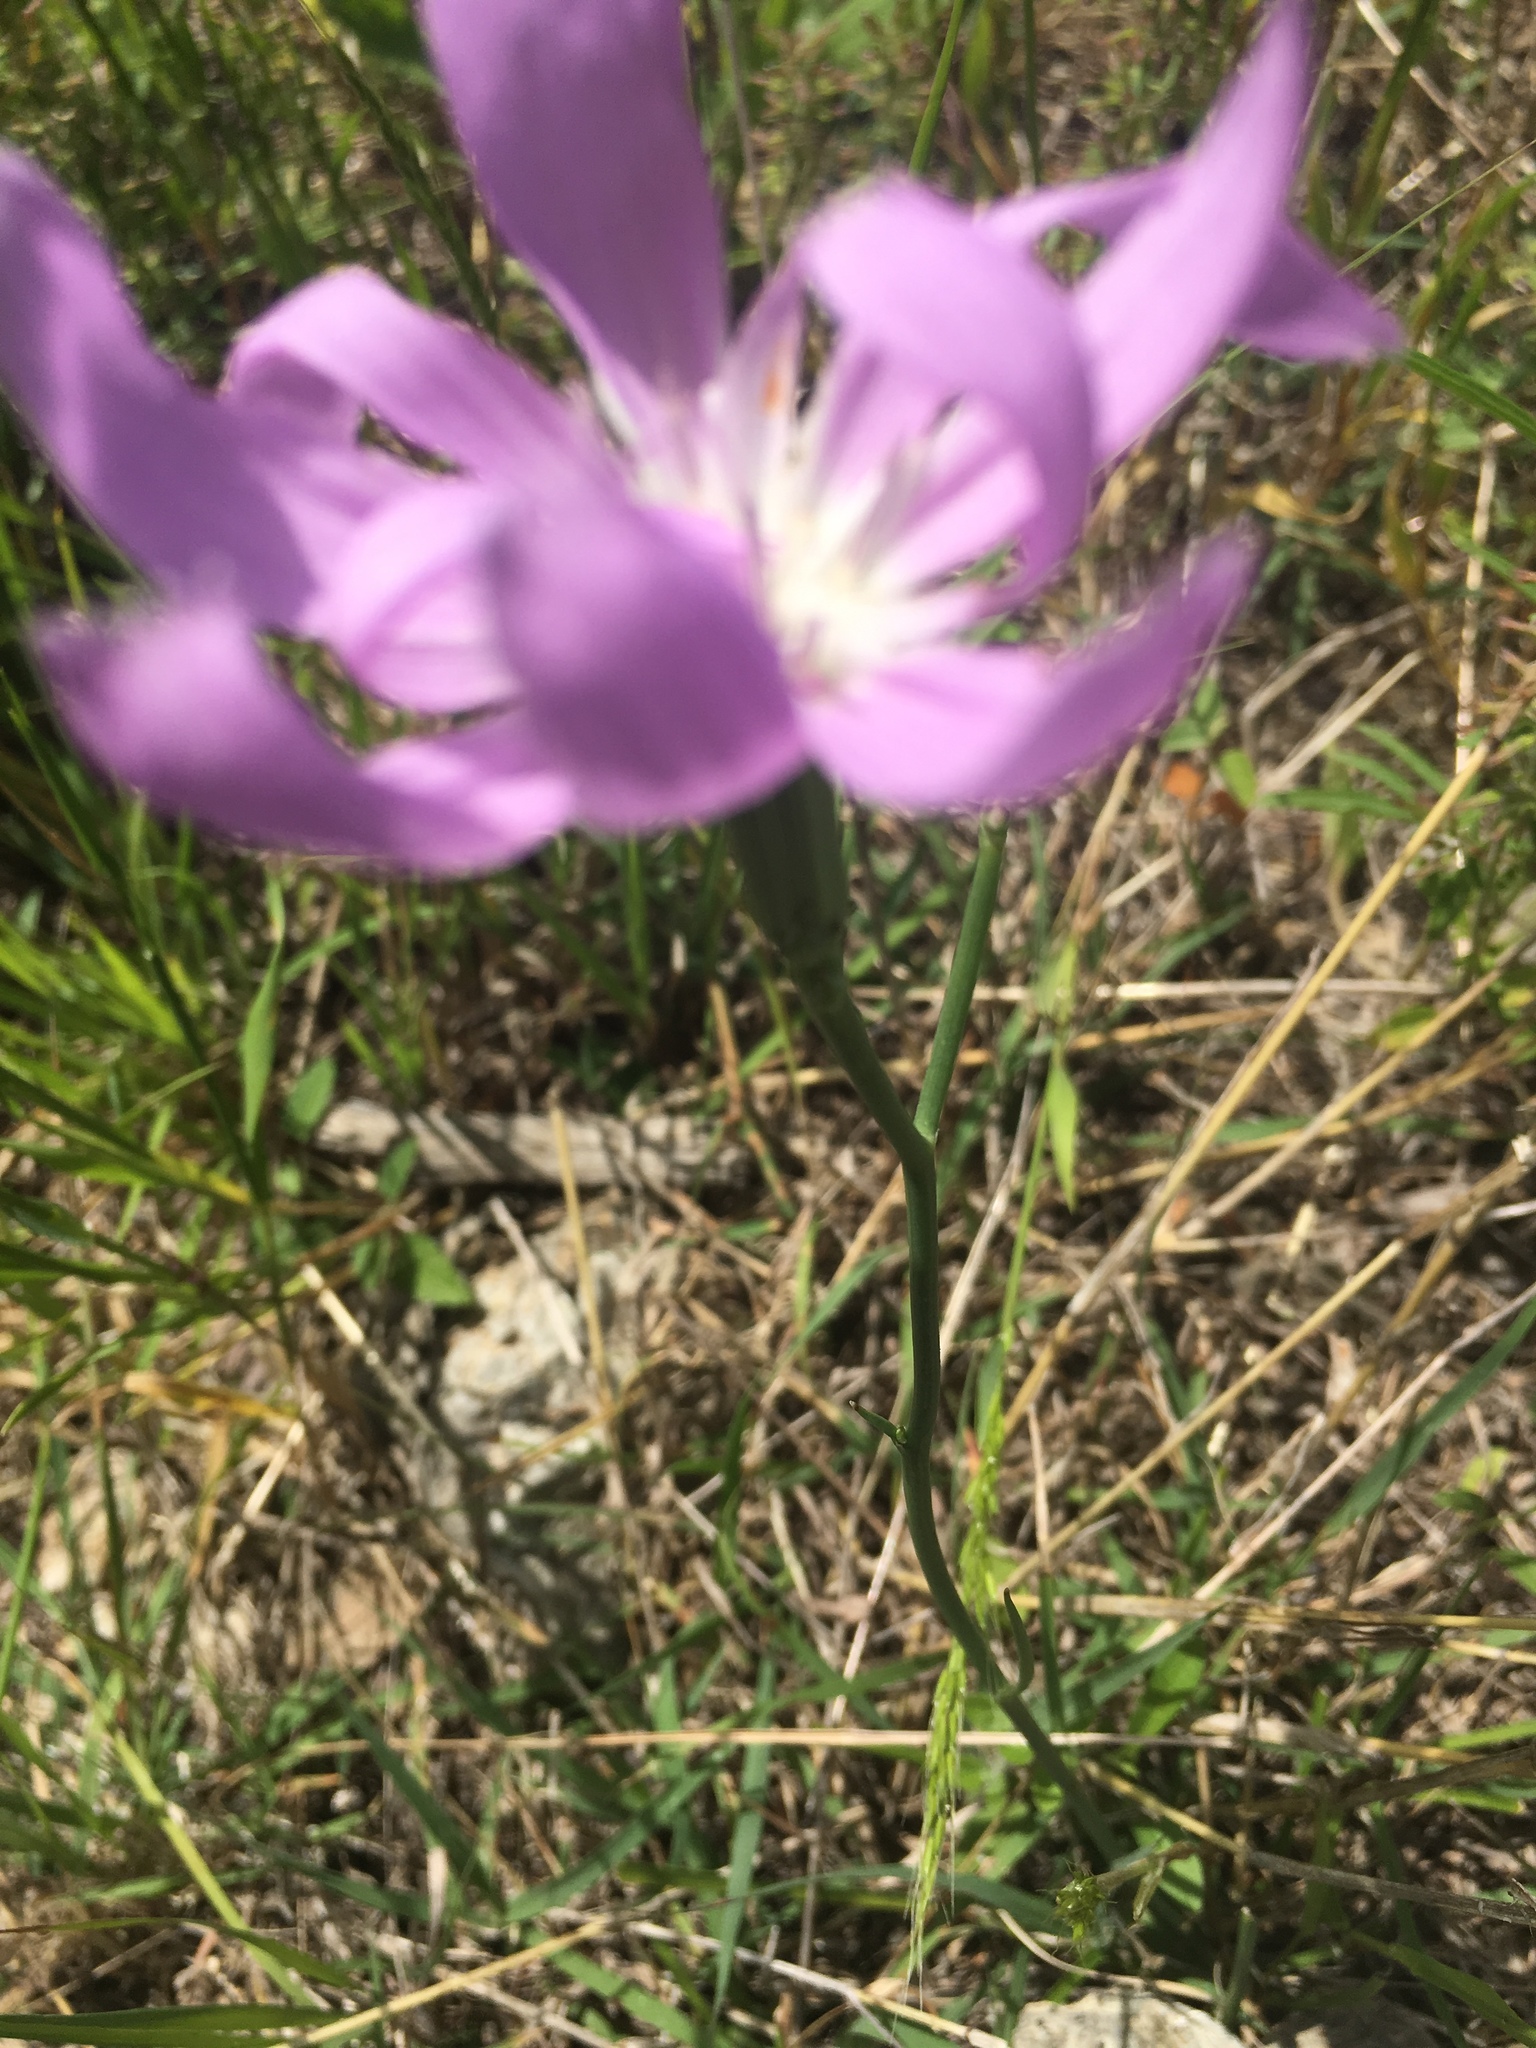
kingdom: Plantae
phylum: Tracheophyta
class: Magnoliopsida
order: Asterales
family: Asteraceae
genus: Lygodesmia
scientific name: Lygodesmia texana
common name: Texas skeleton-plant
